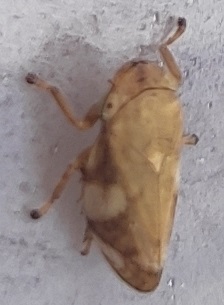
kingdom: Animalia
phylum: Arthropoda
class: Insecta
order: Hemiptera
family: Aphrophoridae
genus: Philaenus
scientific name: Philaenus spumarius
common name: Meadow spittlebug
